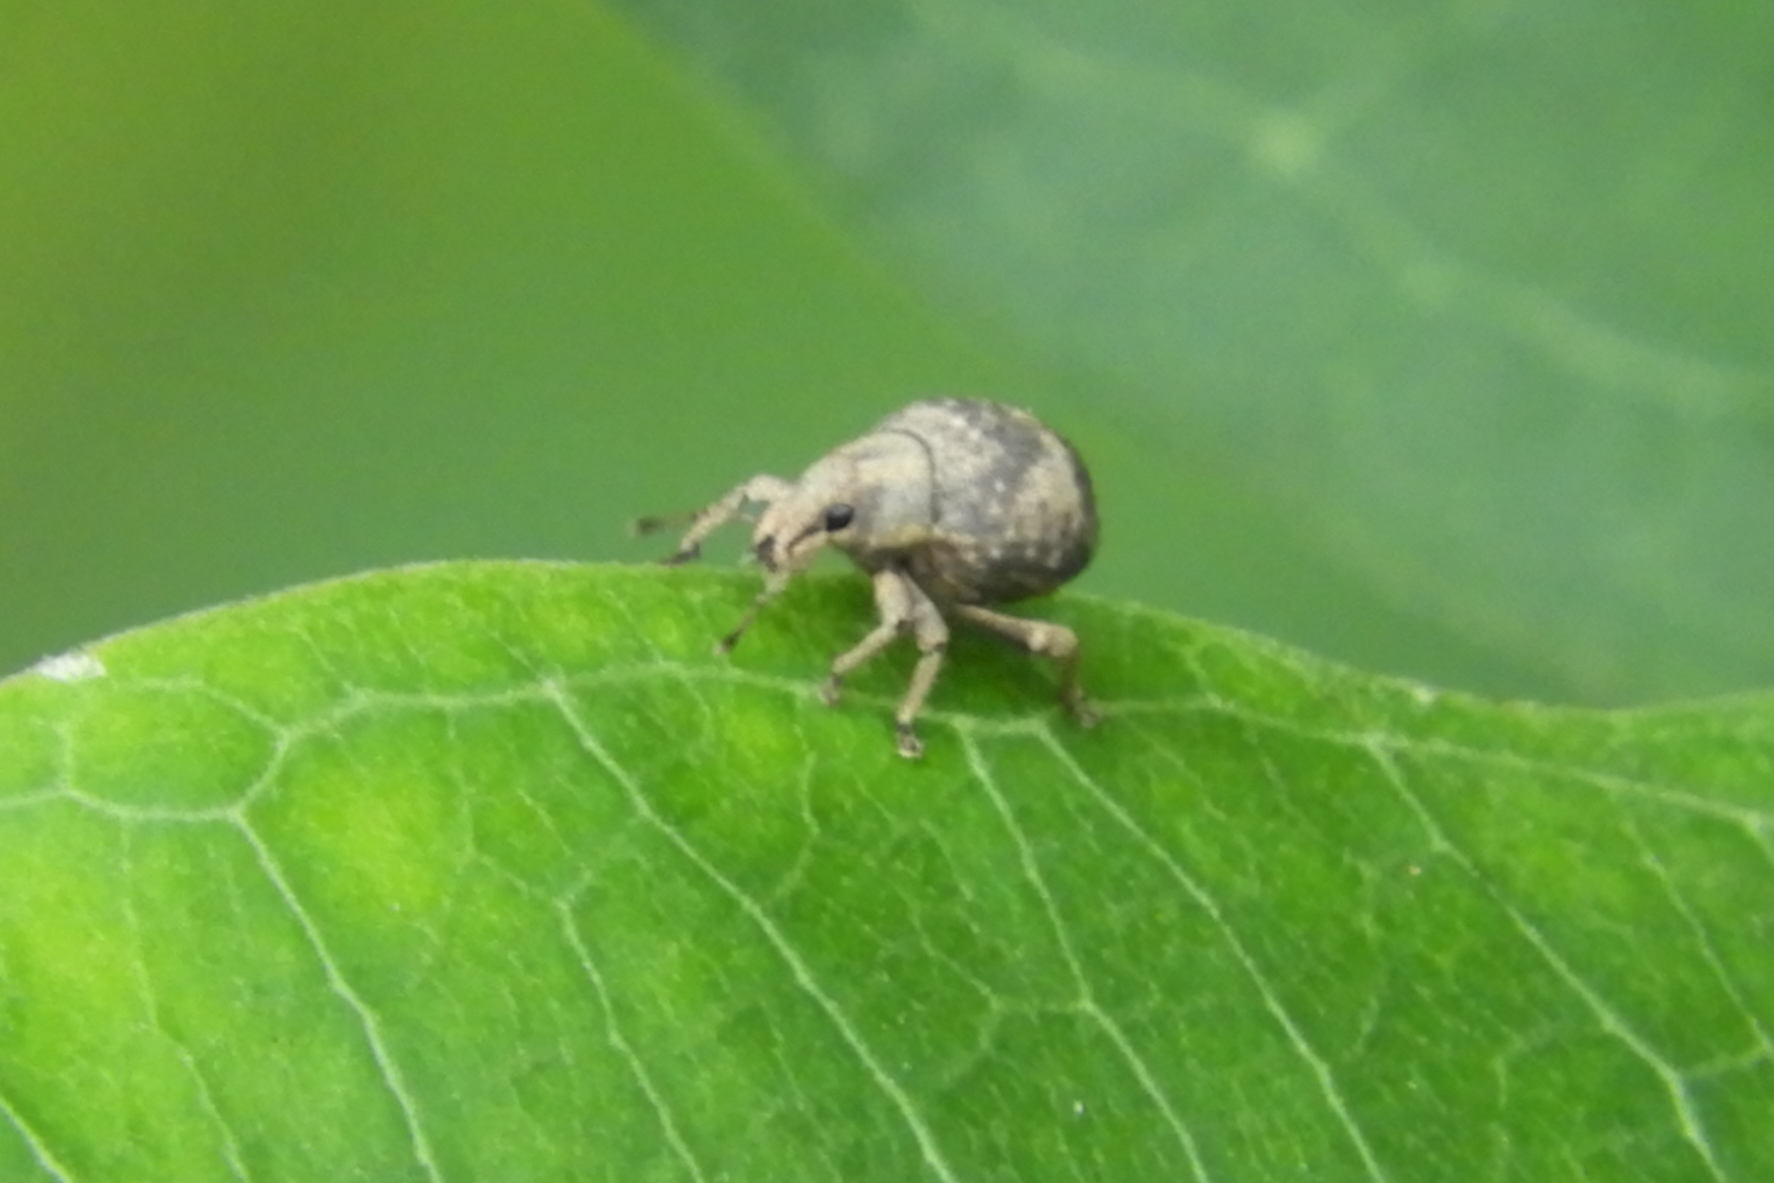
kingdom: Animalia
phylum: Arthropoda
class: Insecta
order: Coleoptera
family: Curculionidae
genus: Pseudocneorhinus
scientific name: Pseudocneorhinus bifasciatus
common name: Two-banded japanese weevil
